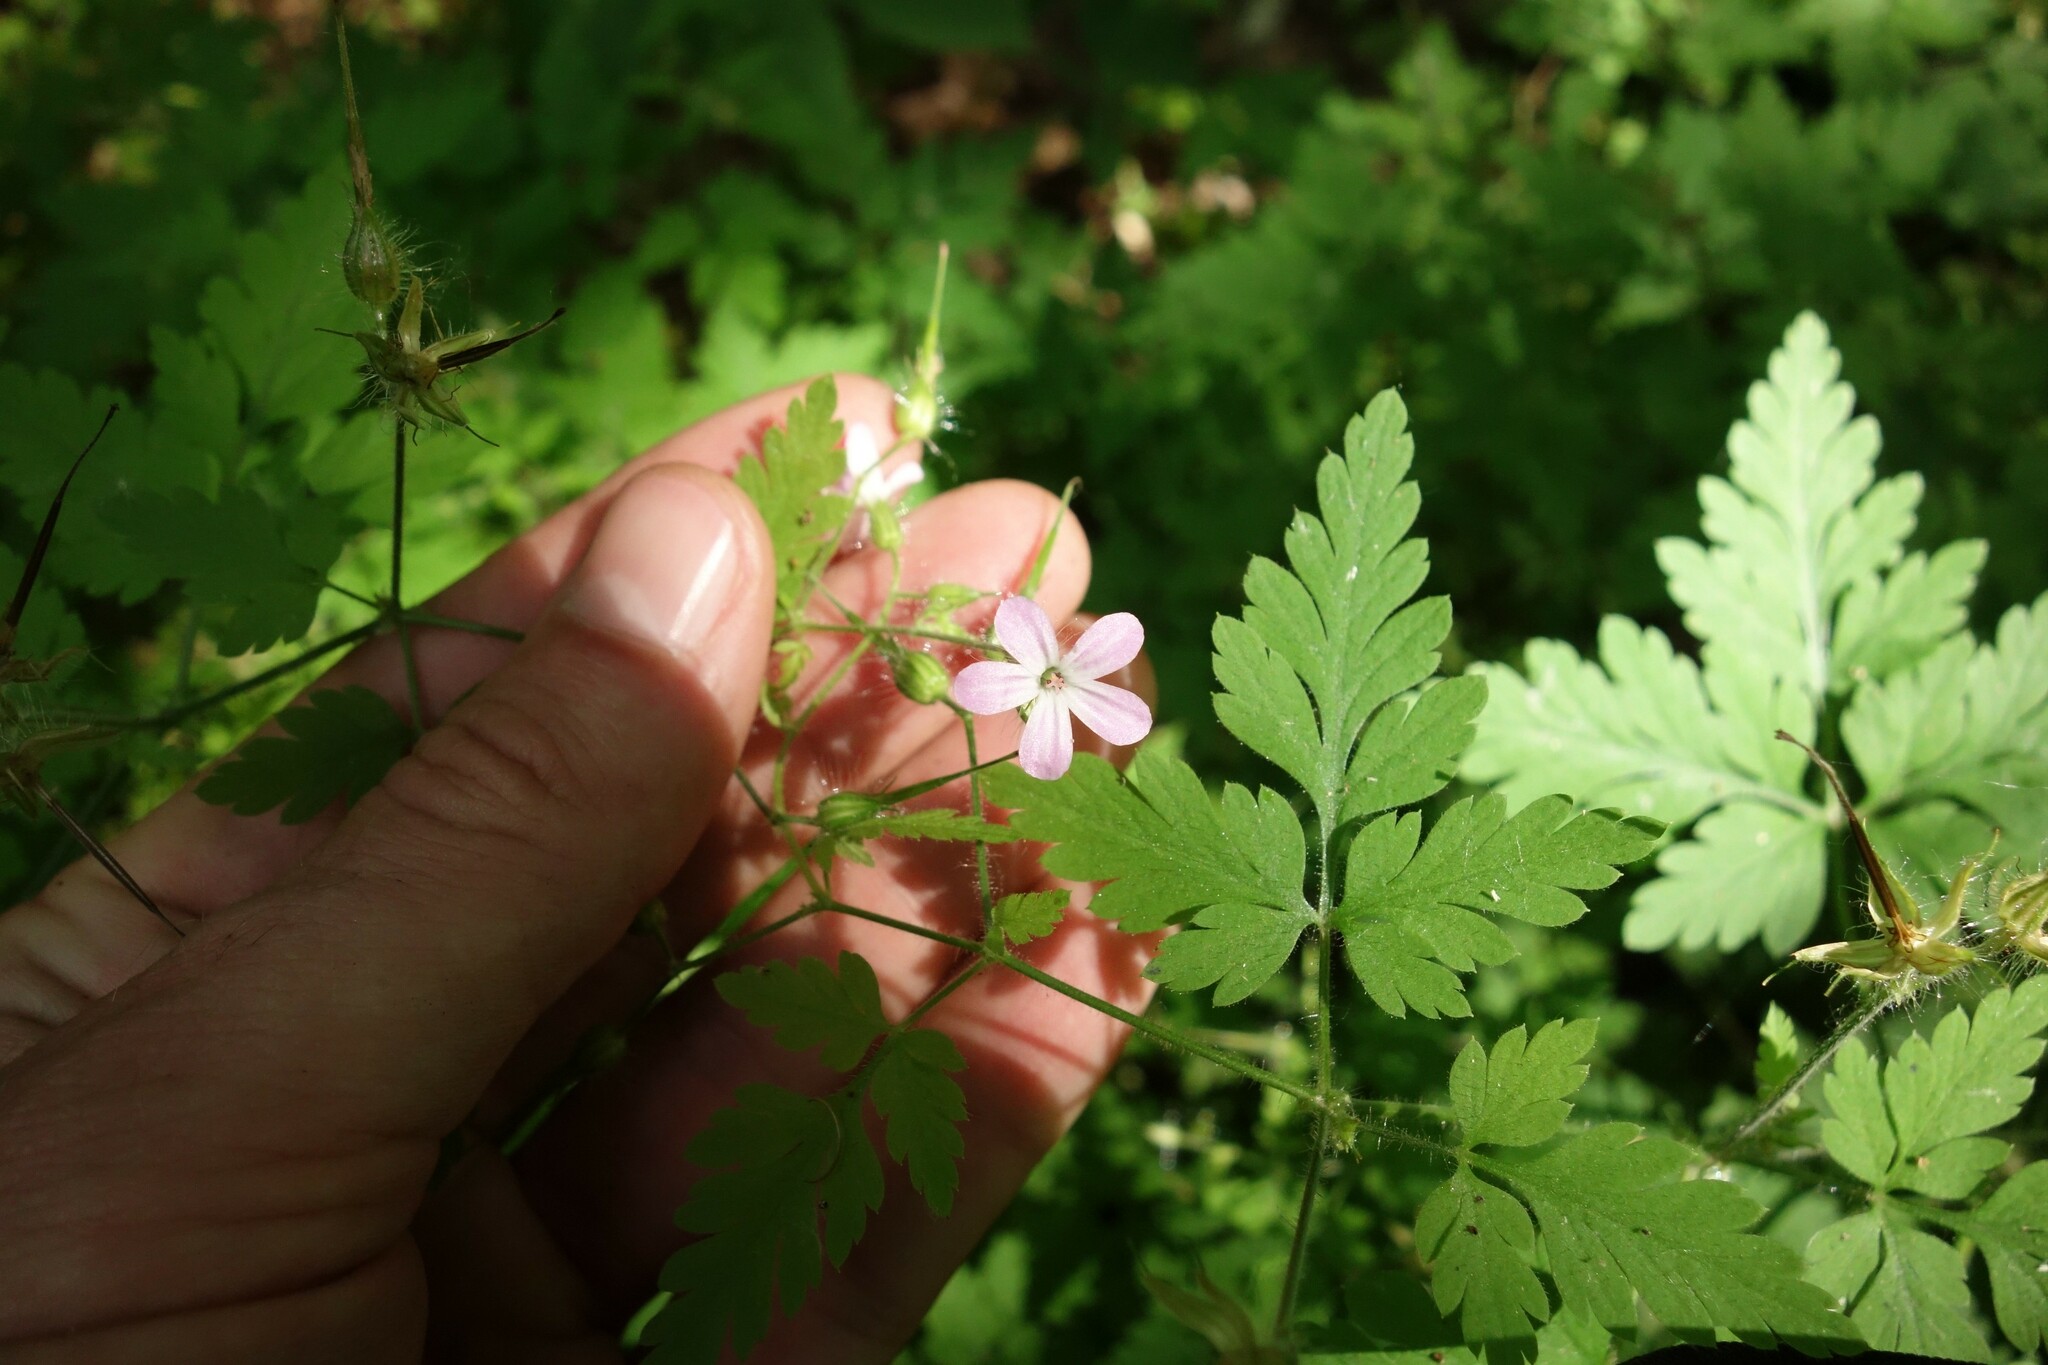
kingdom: Plantae
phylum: Tracheophyta
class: Magnoliopsida
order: Geraniales
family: Geraniaceae
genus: Geranium
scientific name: Geranium robertianum
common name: Herb-robert
